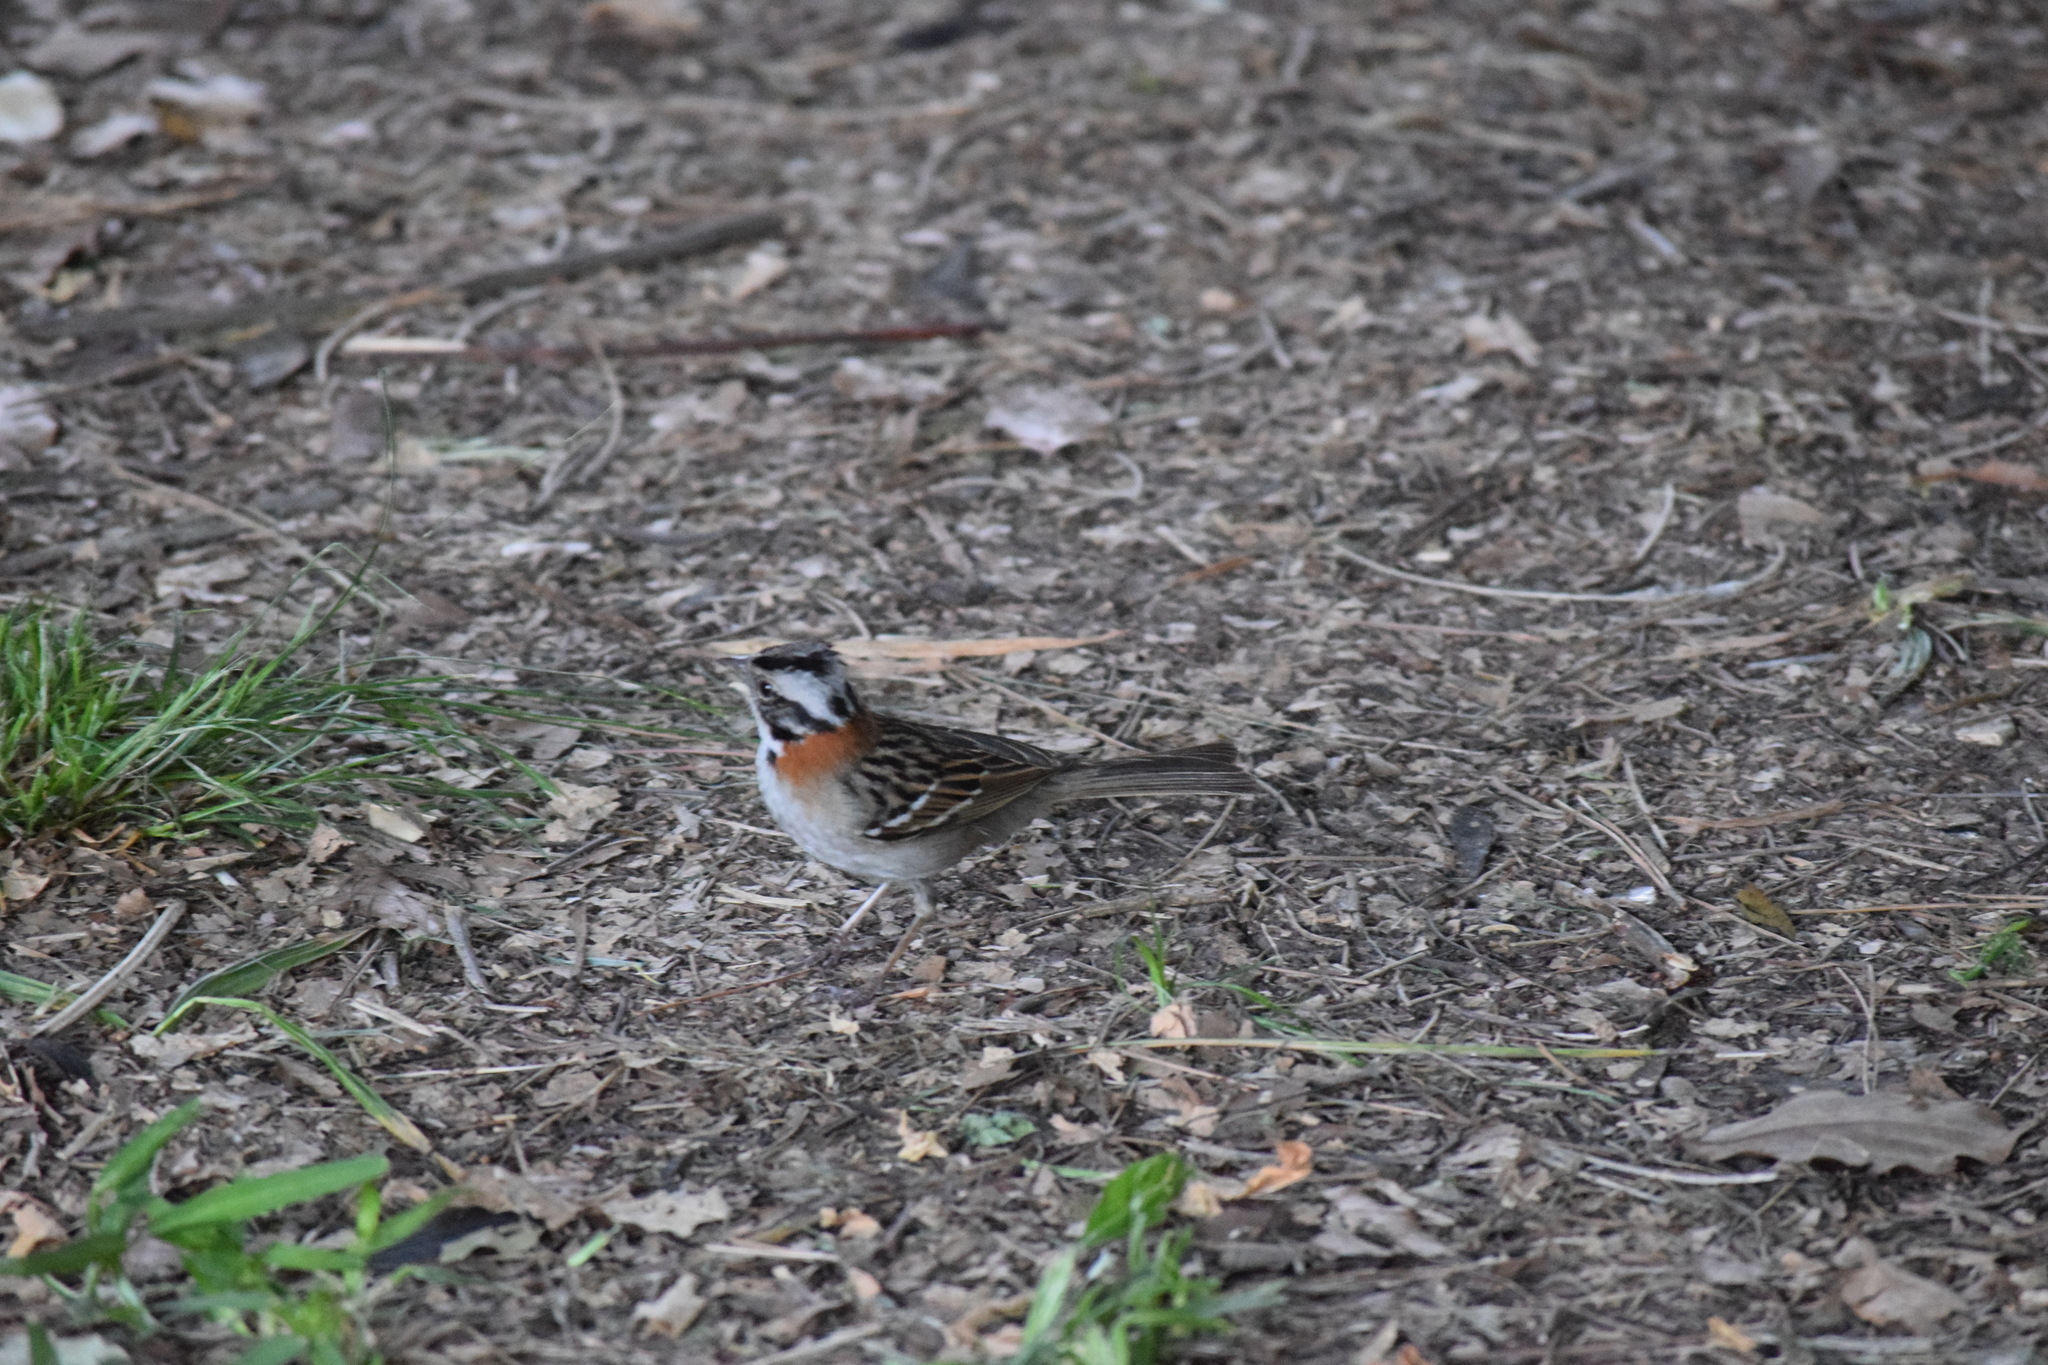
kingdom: Animalia
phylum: Chordata
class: Aves
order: Passeriformes
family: Passerellidae
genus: Zonotrichia
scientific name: Zonotrichia capensis
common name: Rufous-collared sparrow
